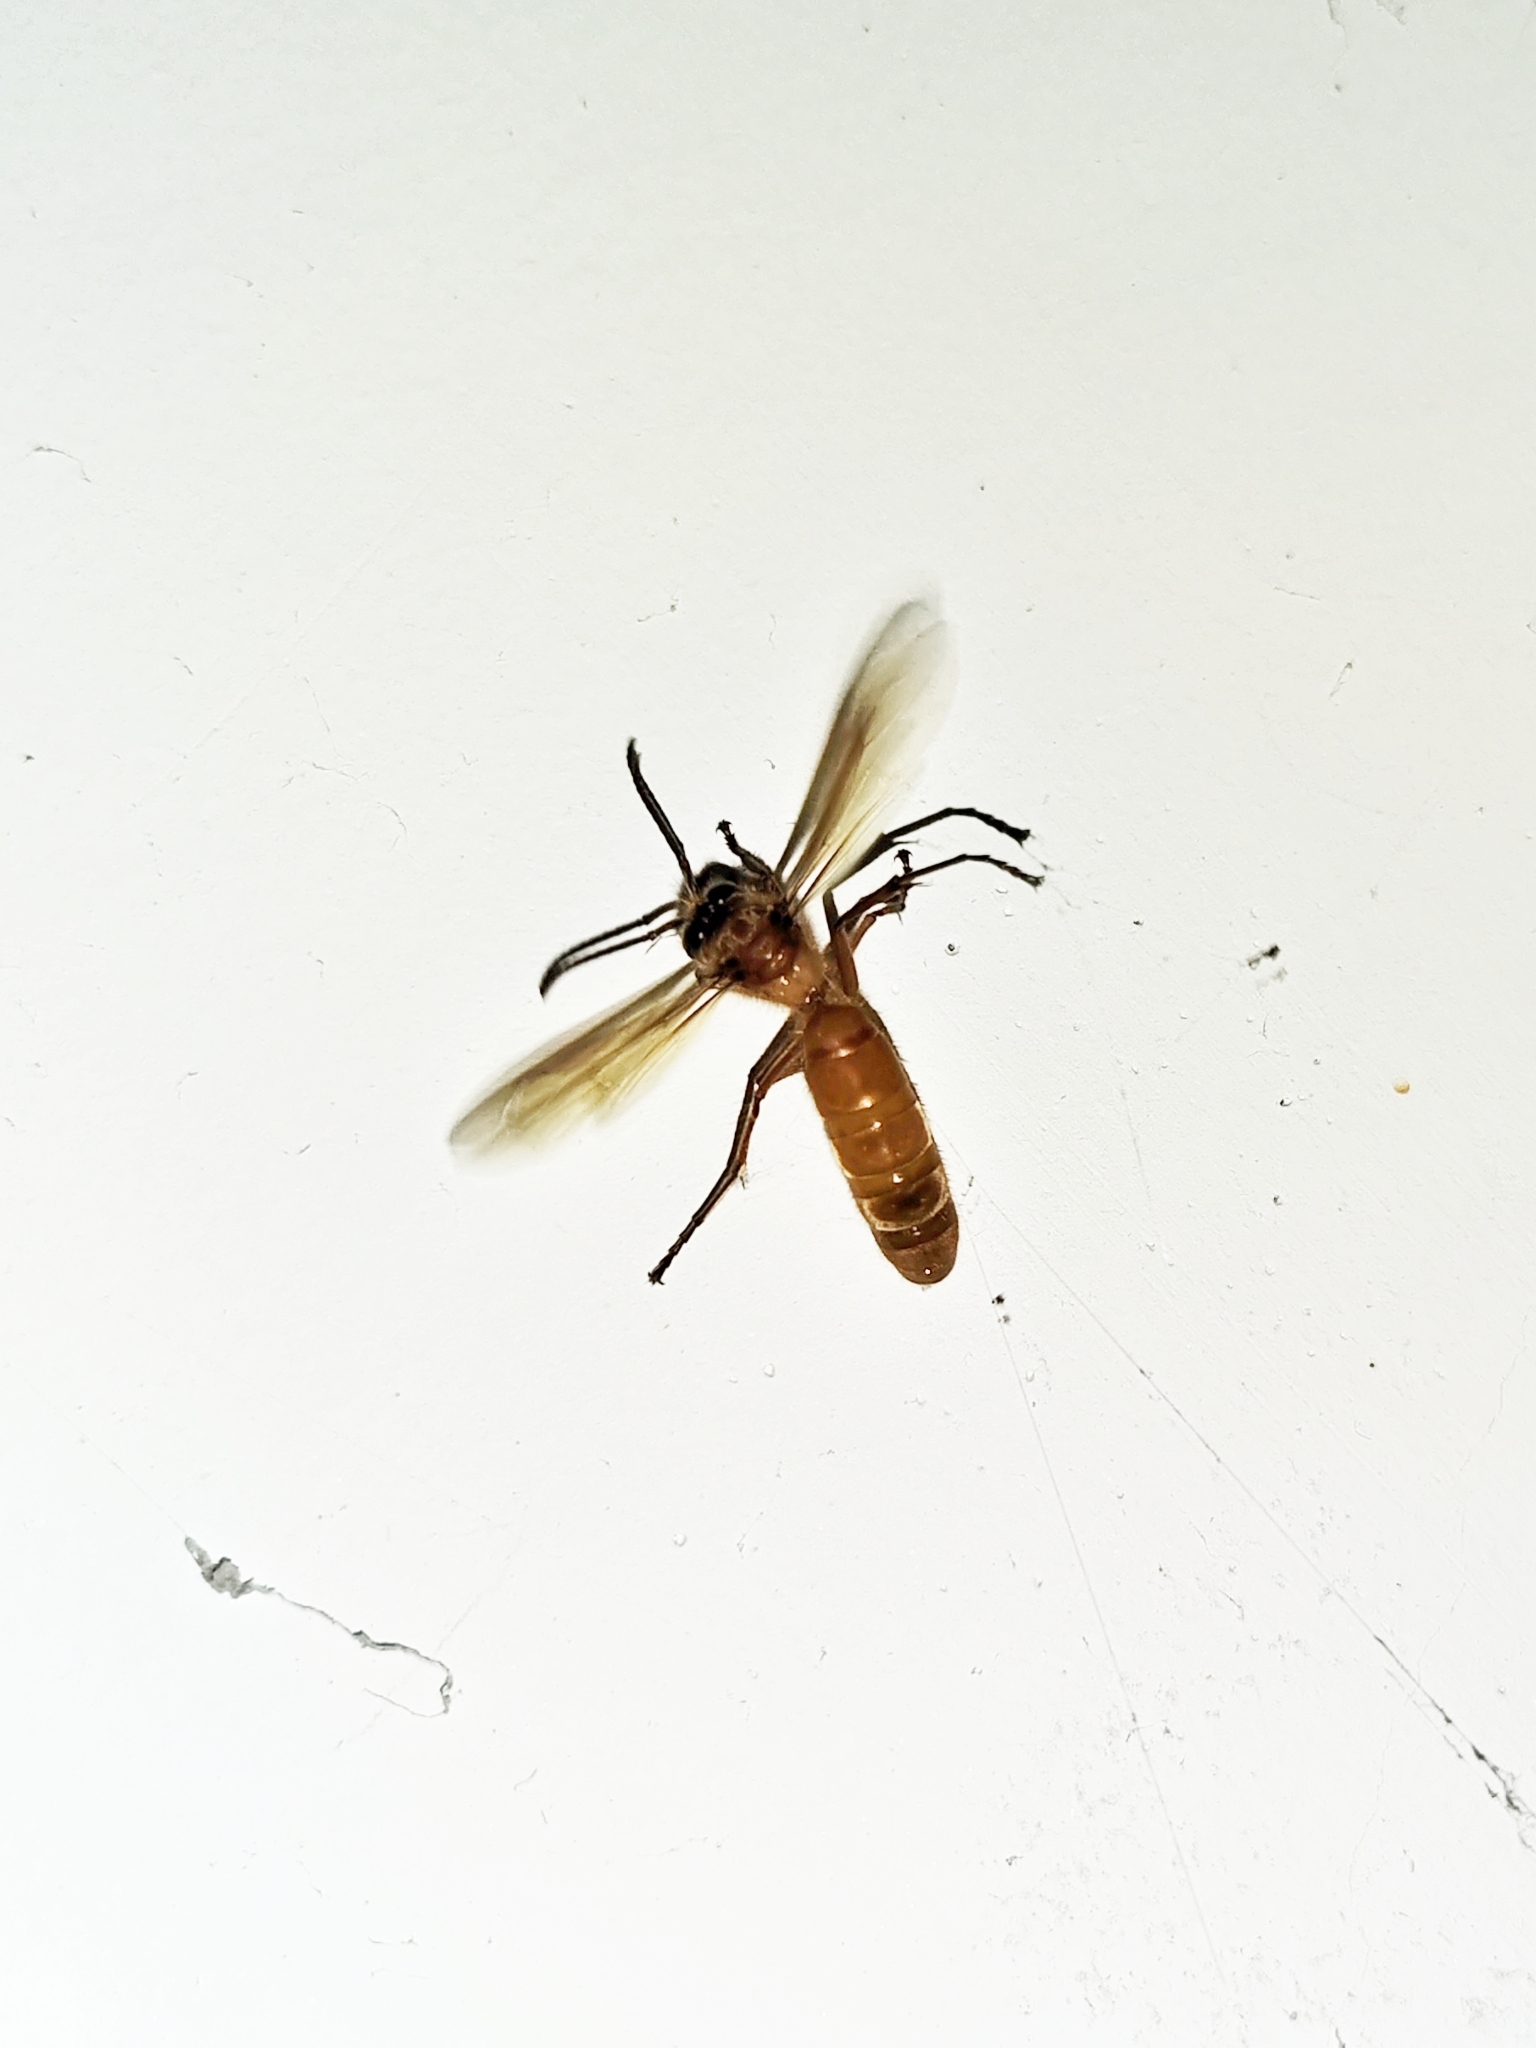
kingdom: Animalia
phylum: Arthropoda
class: Insecta
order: Hymenoptera
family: Vespidae
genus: Provespa
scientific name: Provespa barthelemyi
